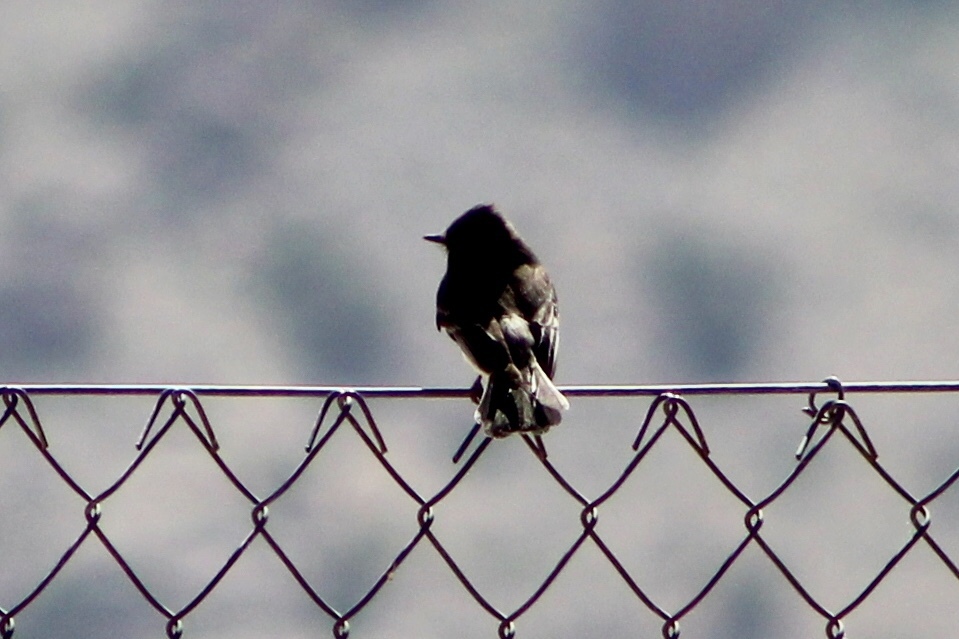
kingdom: Animalia
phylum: Chordata
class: Aves
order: Passeriformes
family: Tyrannidae
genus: Sayornis
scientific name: Sayornis nigricans
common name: Black phoebe
